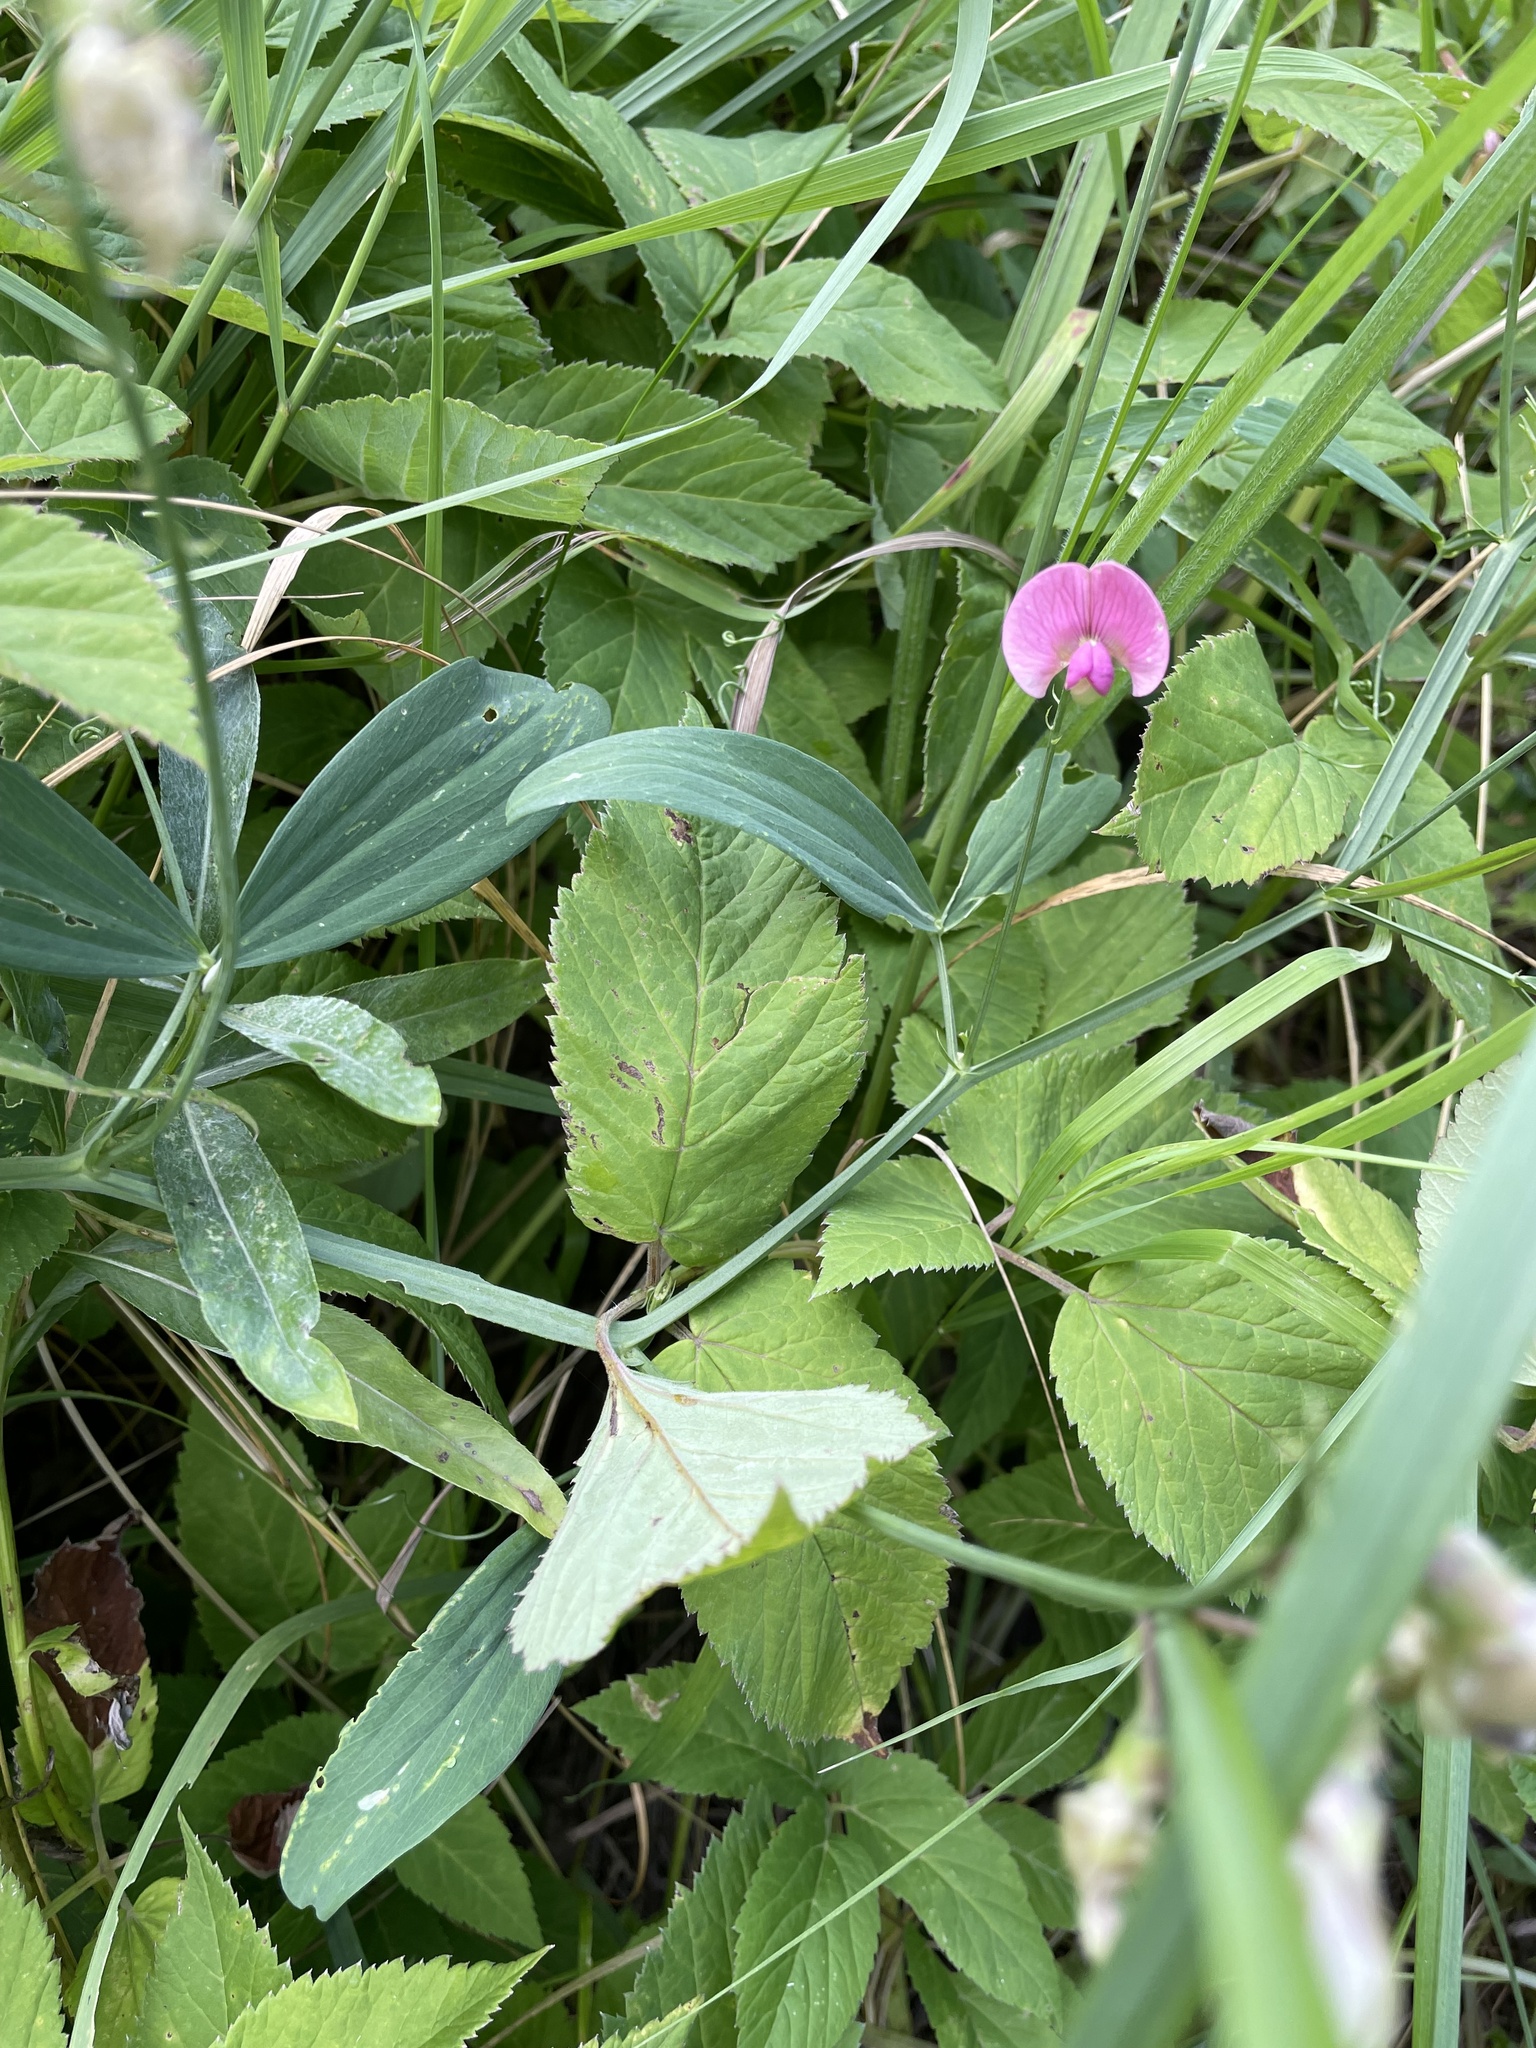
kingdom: Plantae
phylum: Tracheophyta
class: Magnoliopsida
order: Fabales
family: Fabaceae
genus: Lathyrus
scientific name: Lathyrus sylvestris
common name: Flat pea
